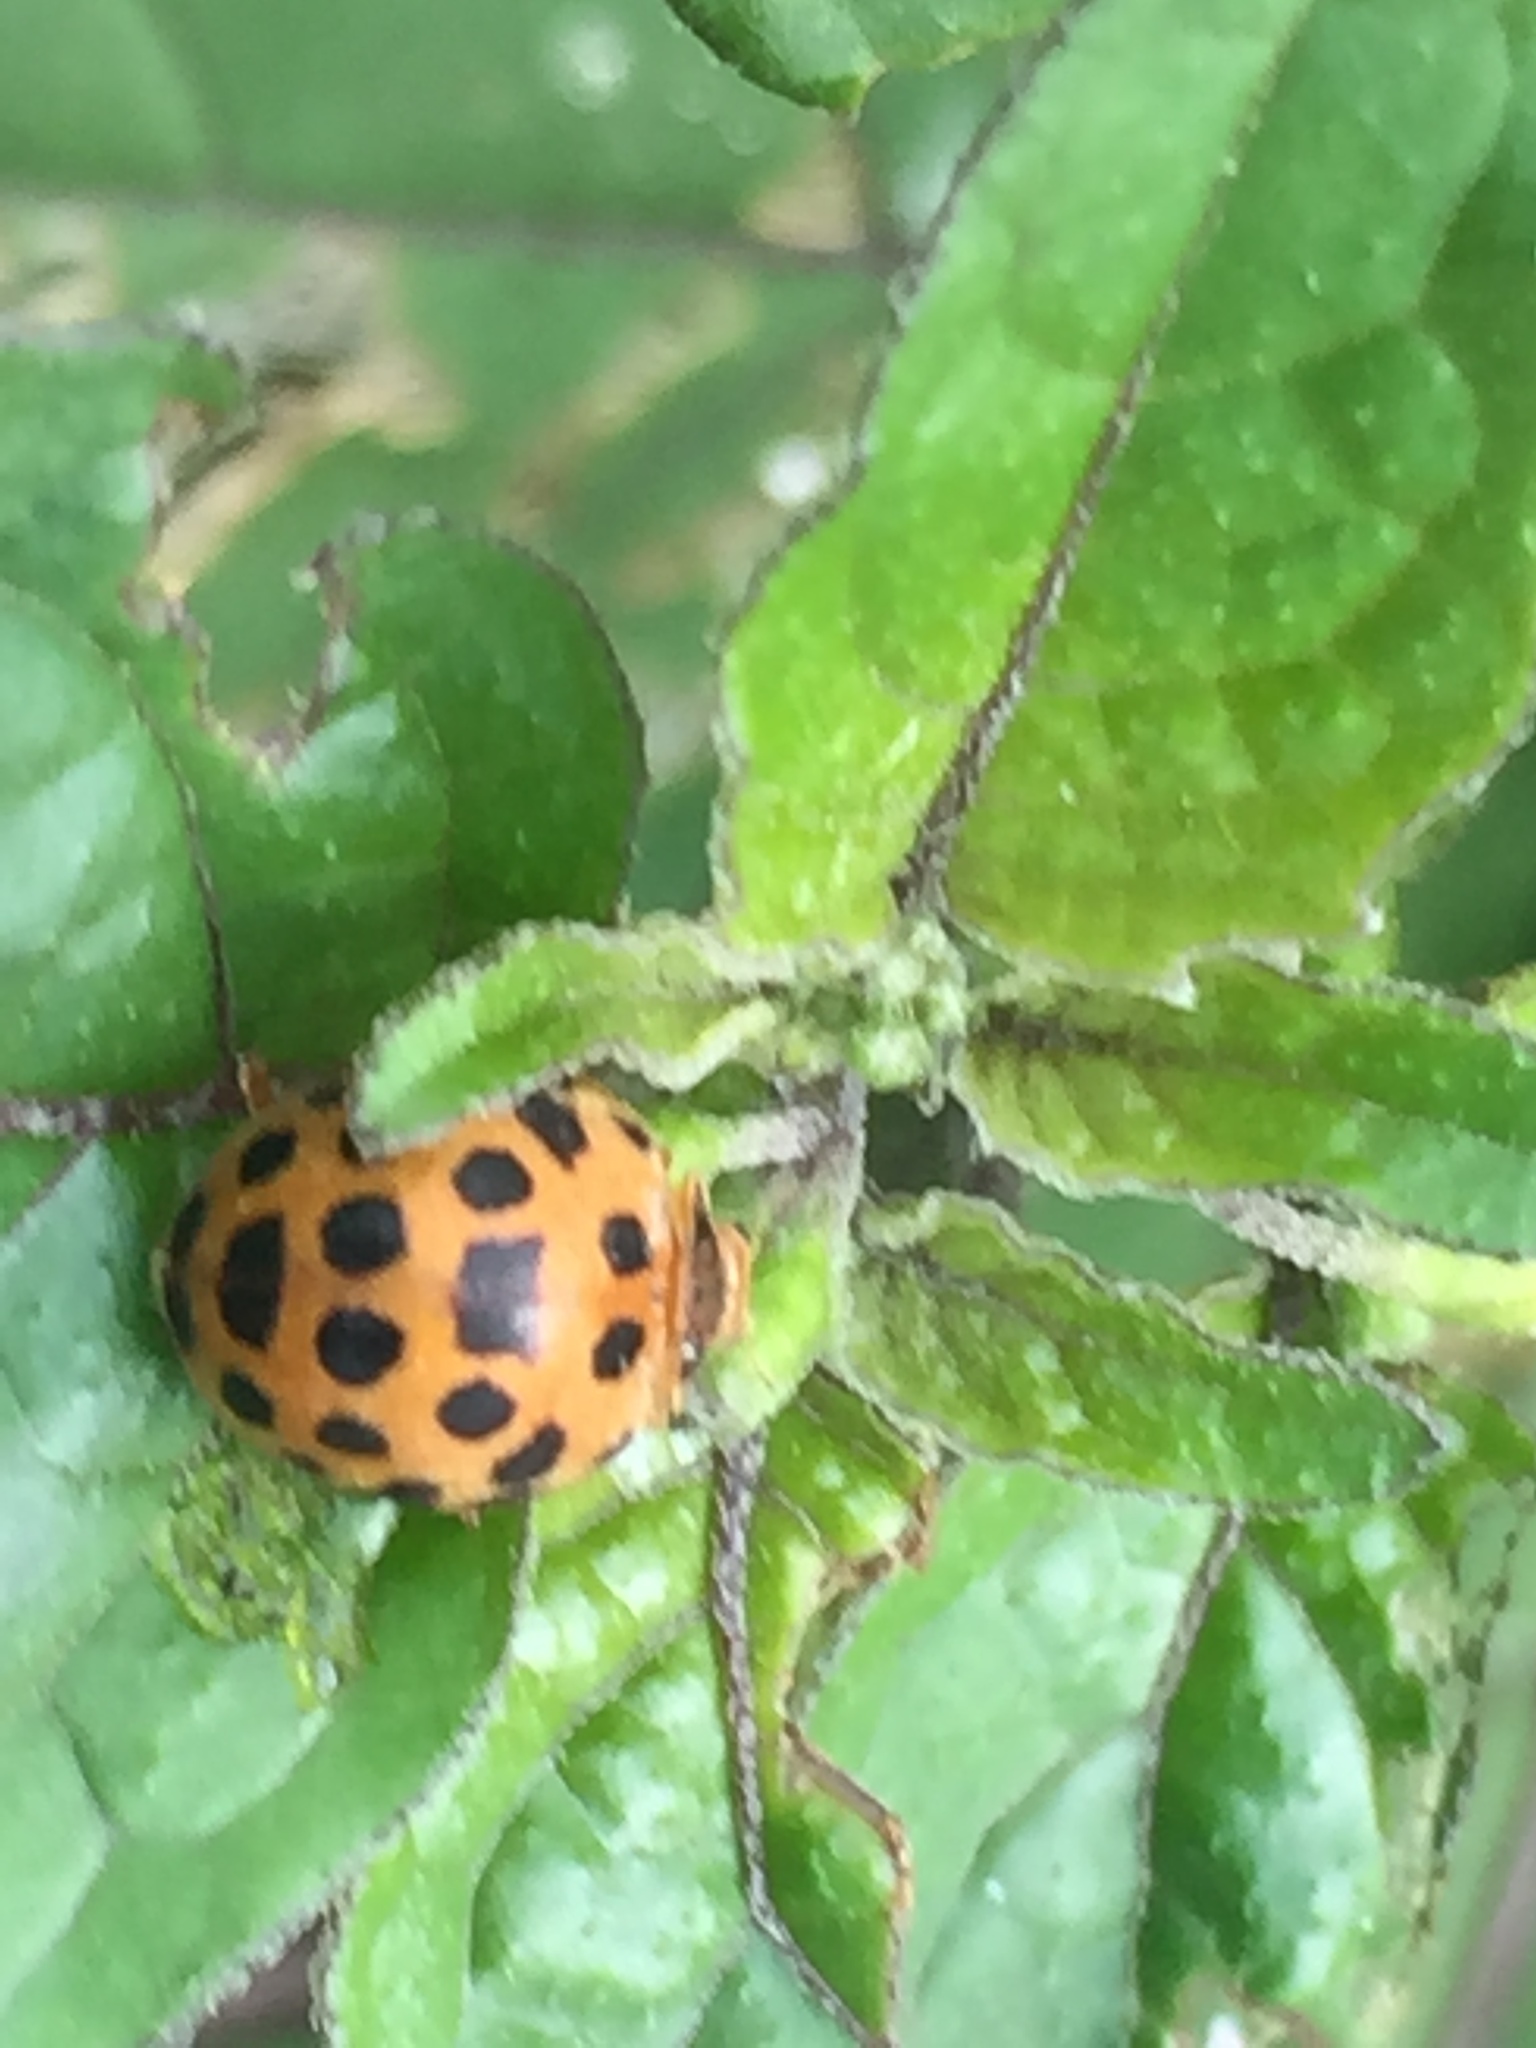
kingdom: Animalia
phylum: Arthropoda
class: Insecta
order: Coleoptera
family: Coccinellidae
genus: Henosepilachna
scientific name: Henosepilachna vigintioctopunctata
